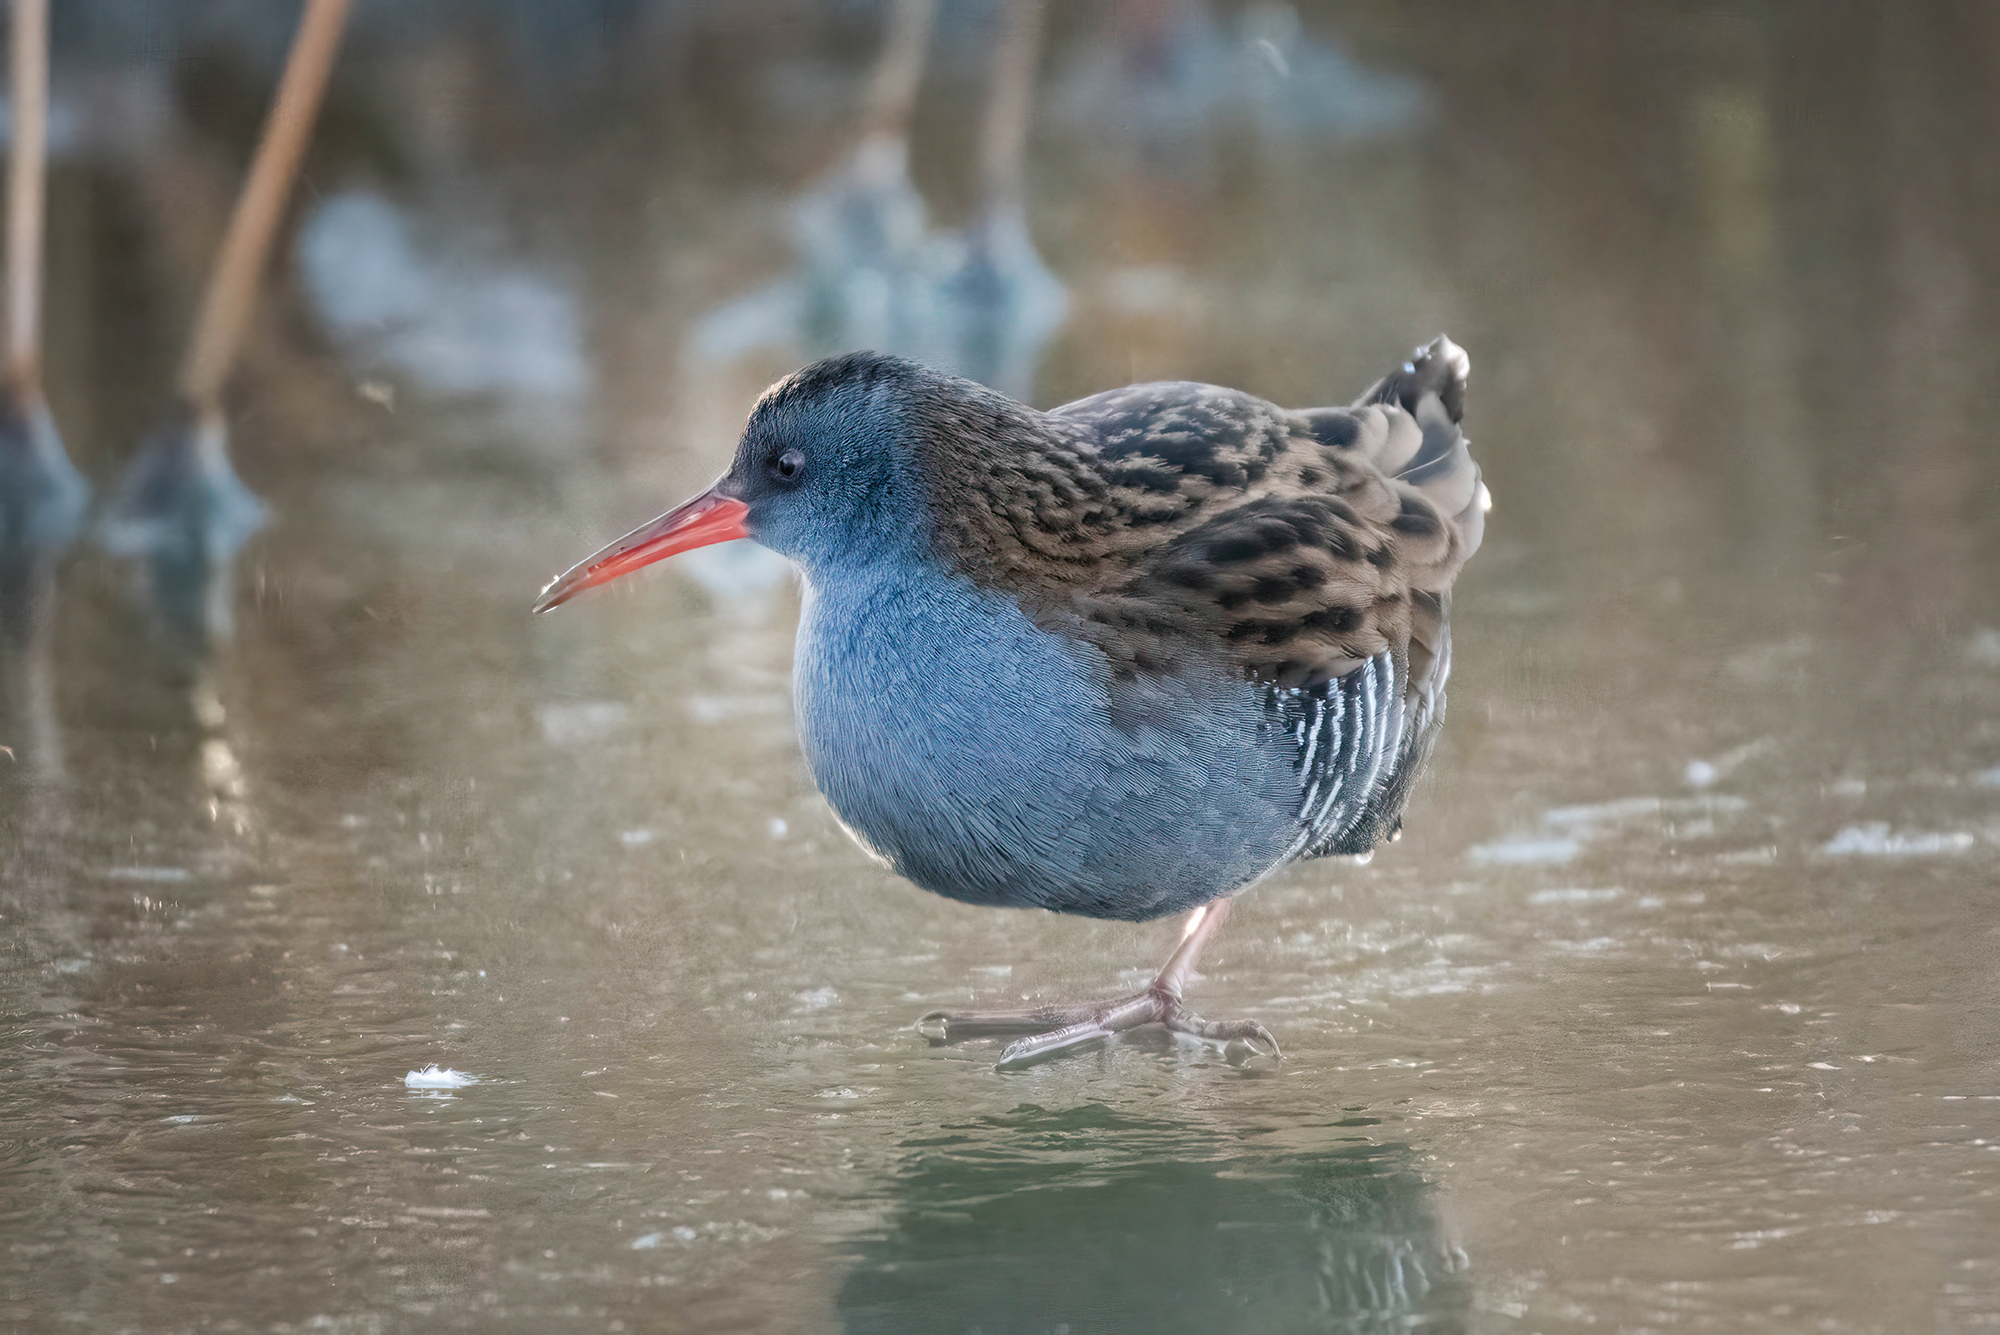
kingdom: Animalia
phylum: Chordata
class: Aves
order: Gruiformes
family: Rallidae
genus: Rallus
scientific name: Rallus aquaticus
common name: Water rail
